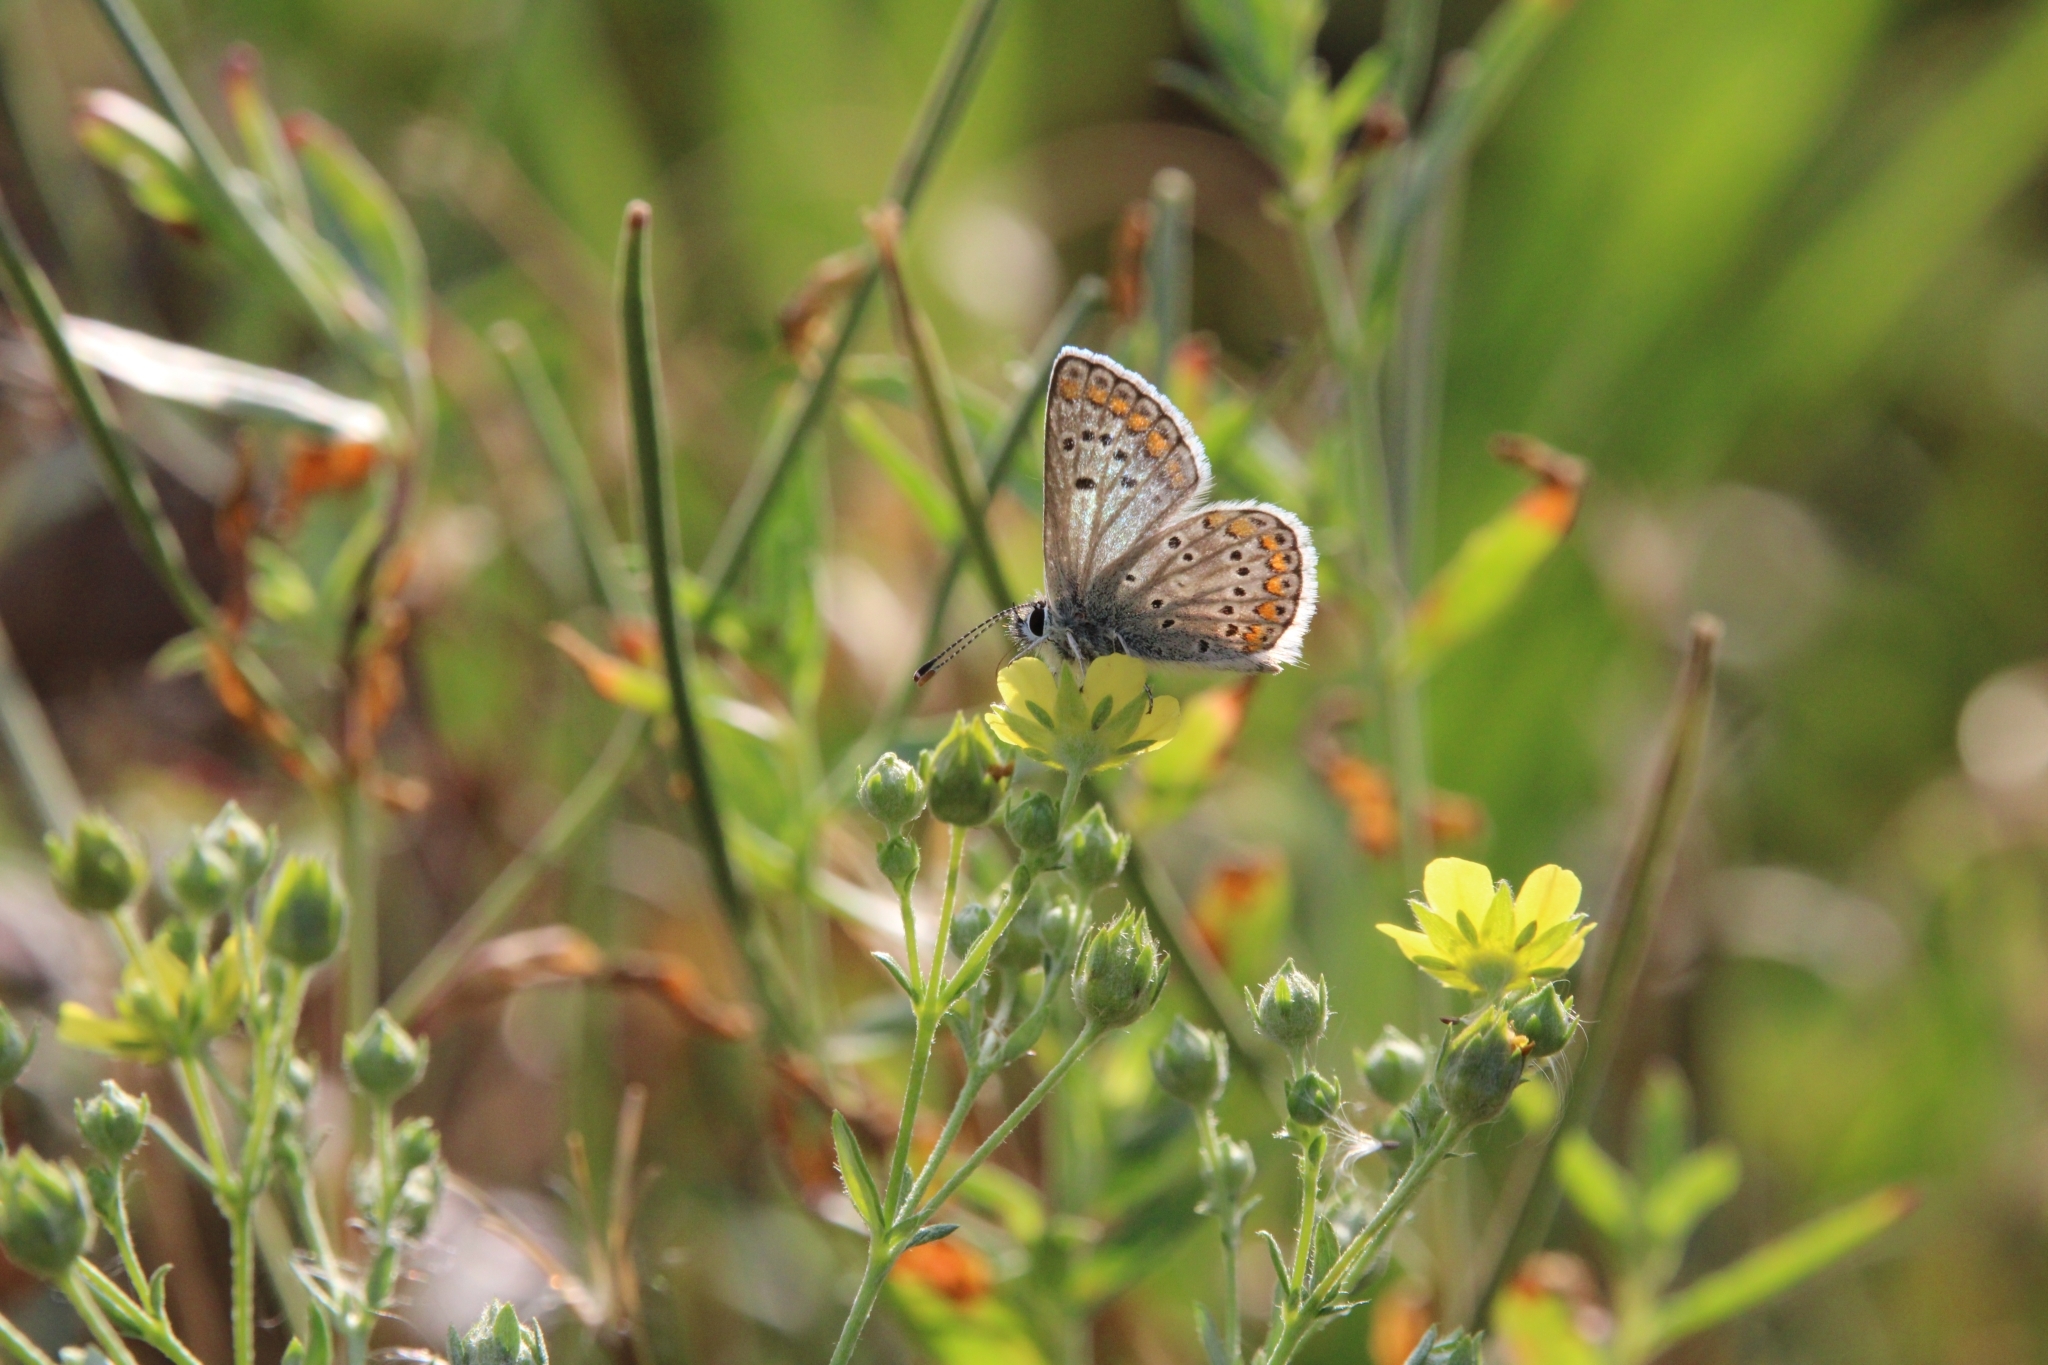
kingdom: Animalia
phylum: Arthropoda
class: Insecta
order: Lepidoptera
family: Lycaenidae
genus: Aricia
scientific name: Aricia agestis
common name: Brown argus
